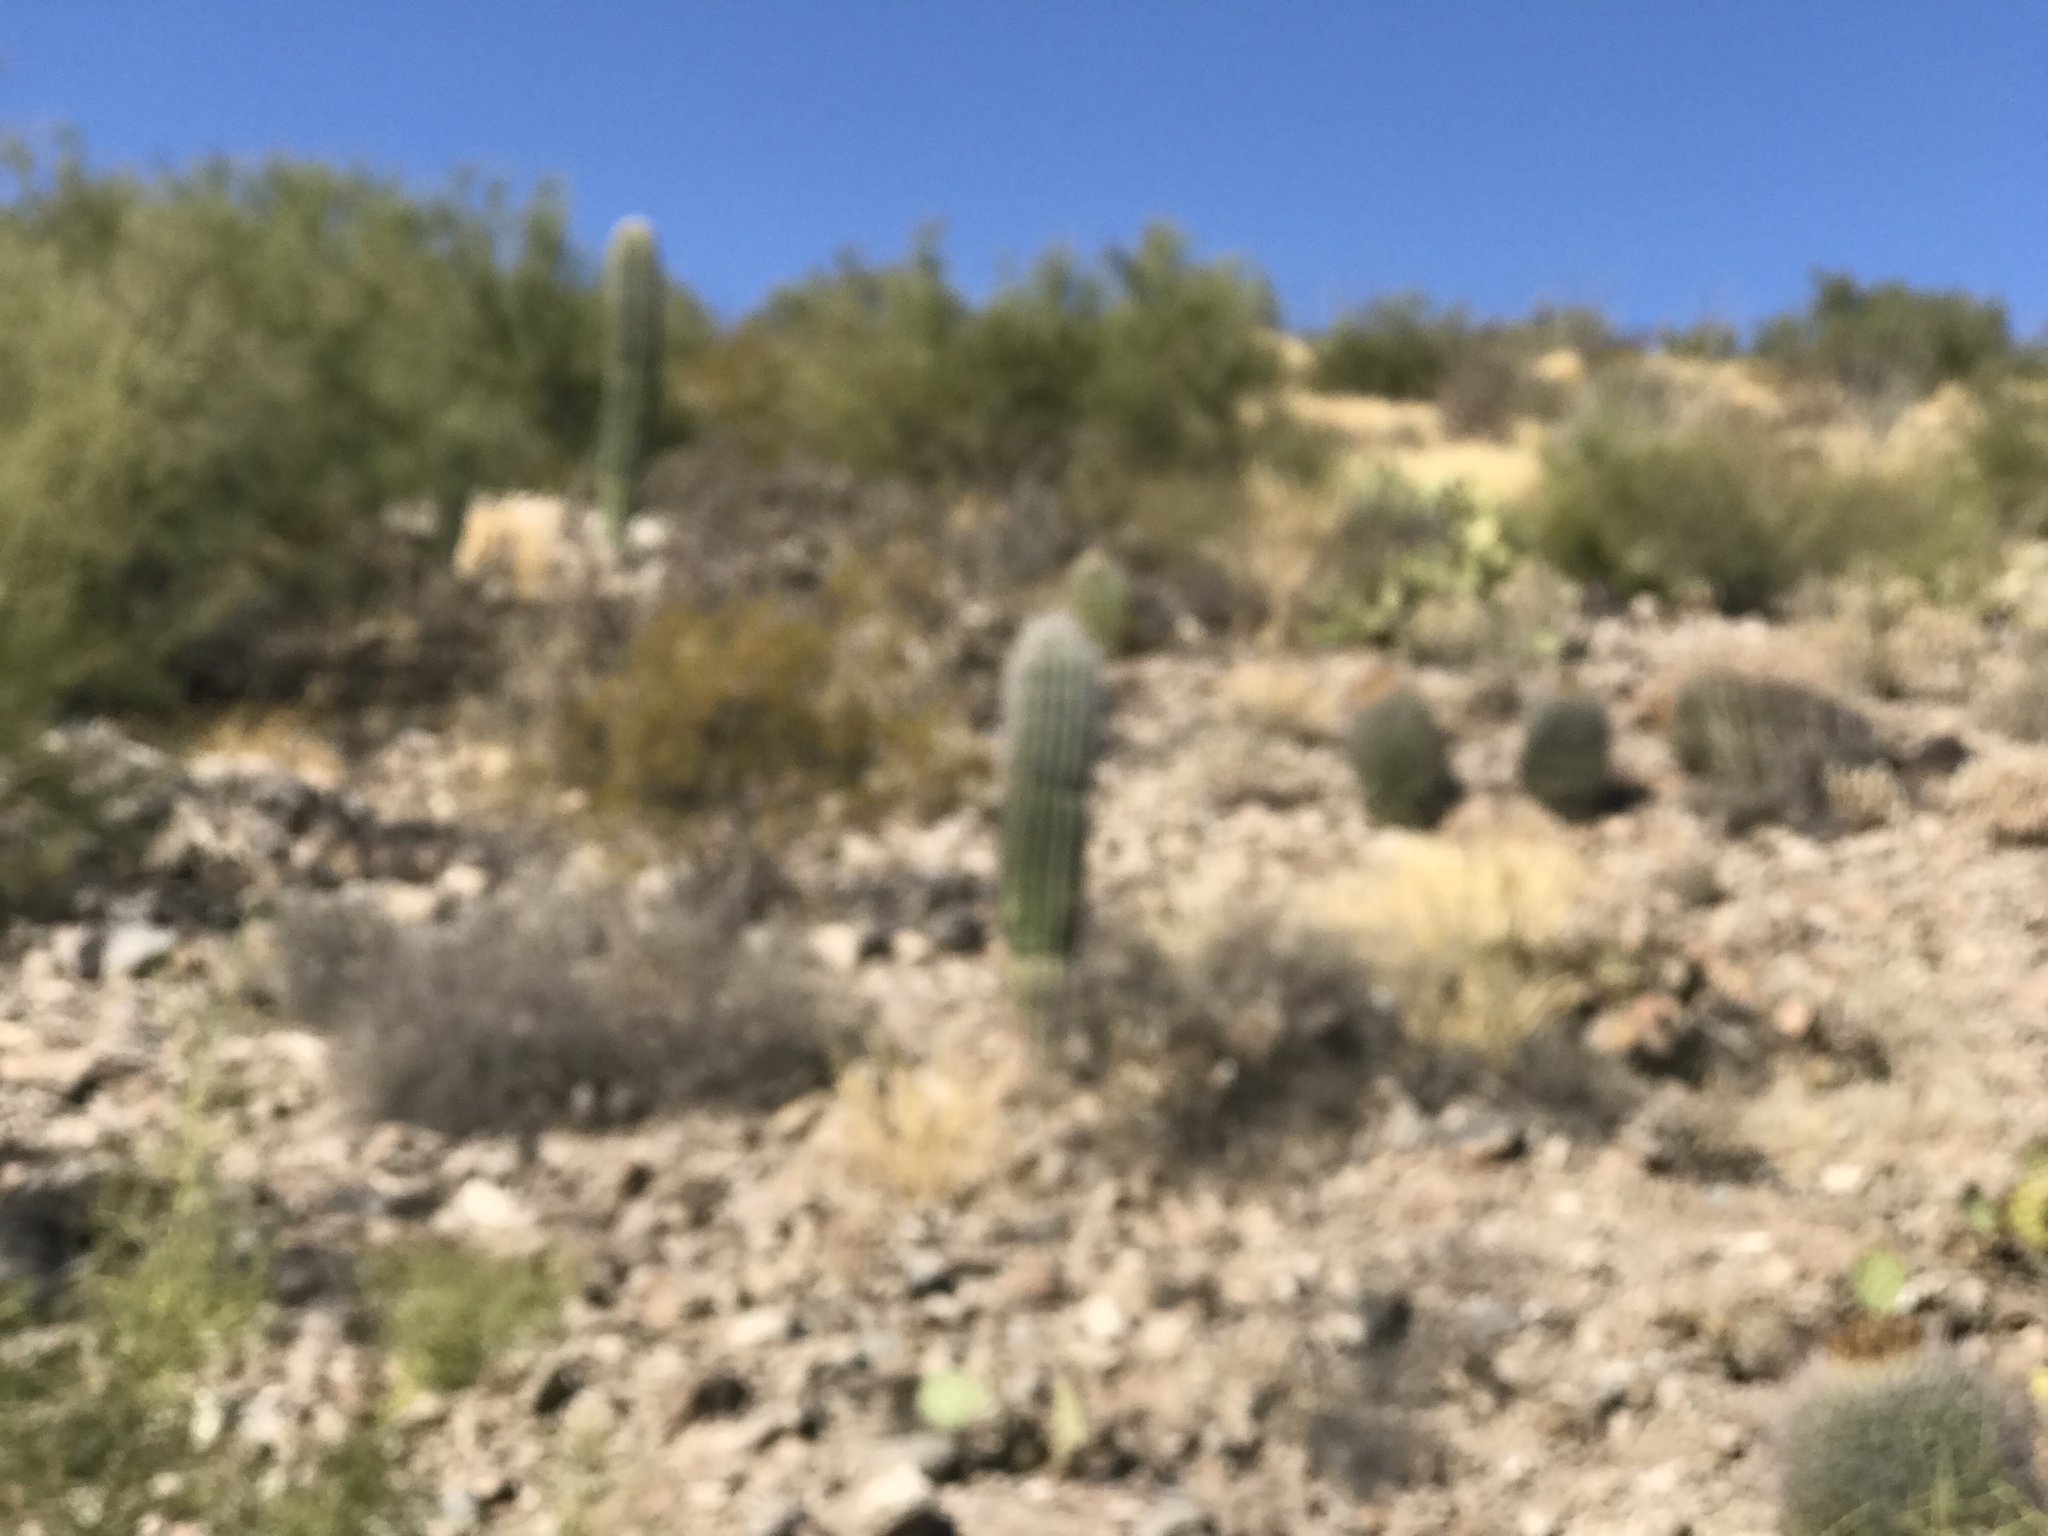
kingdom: Plantae
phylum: Tracheophyta
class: Magnoliopsida
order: Caryophyllales
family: Cactaceae
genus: Carnegiea
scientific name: Carnegiea gigantea
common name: Saguaro
